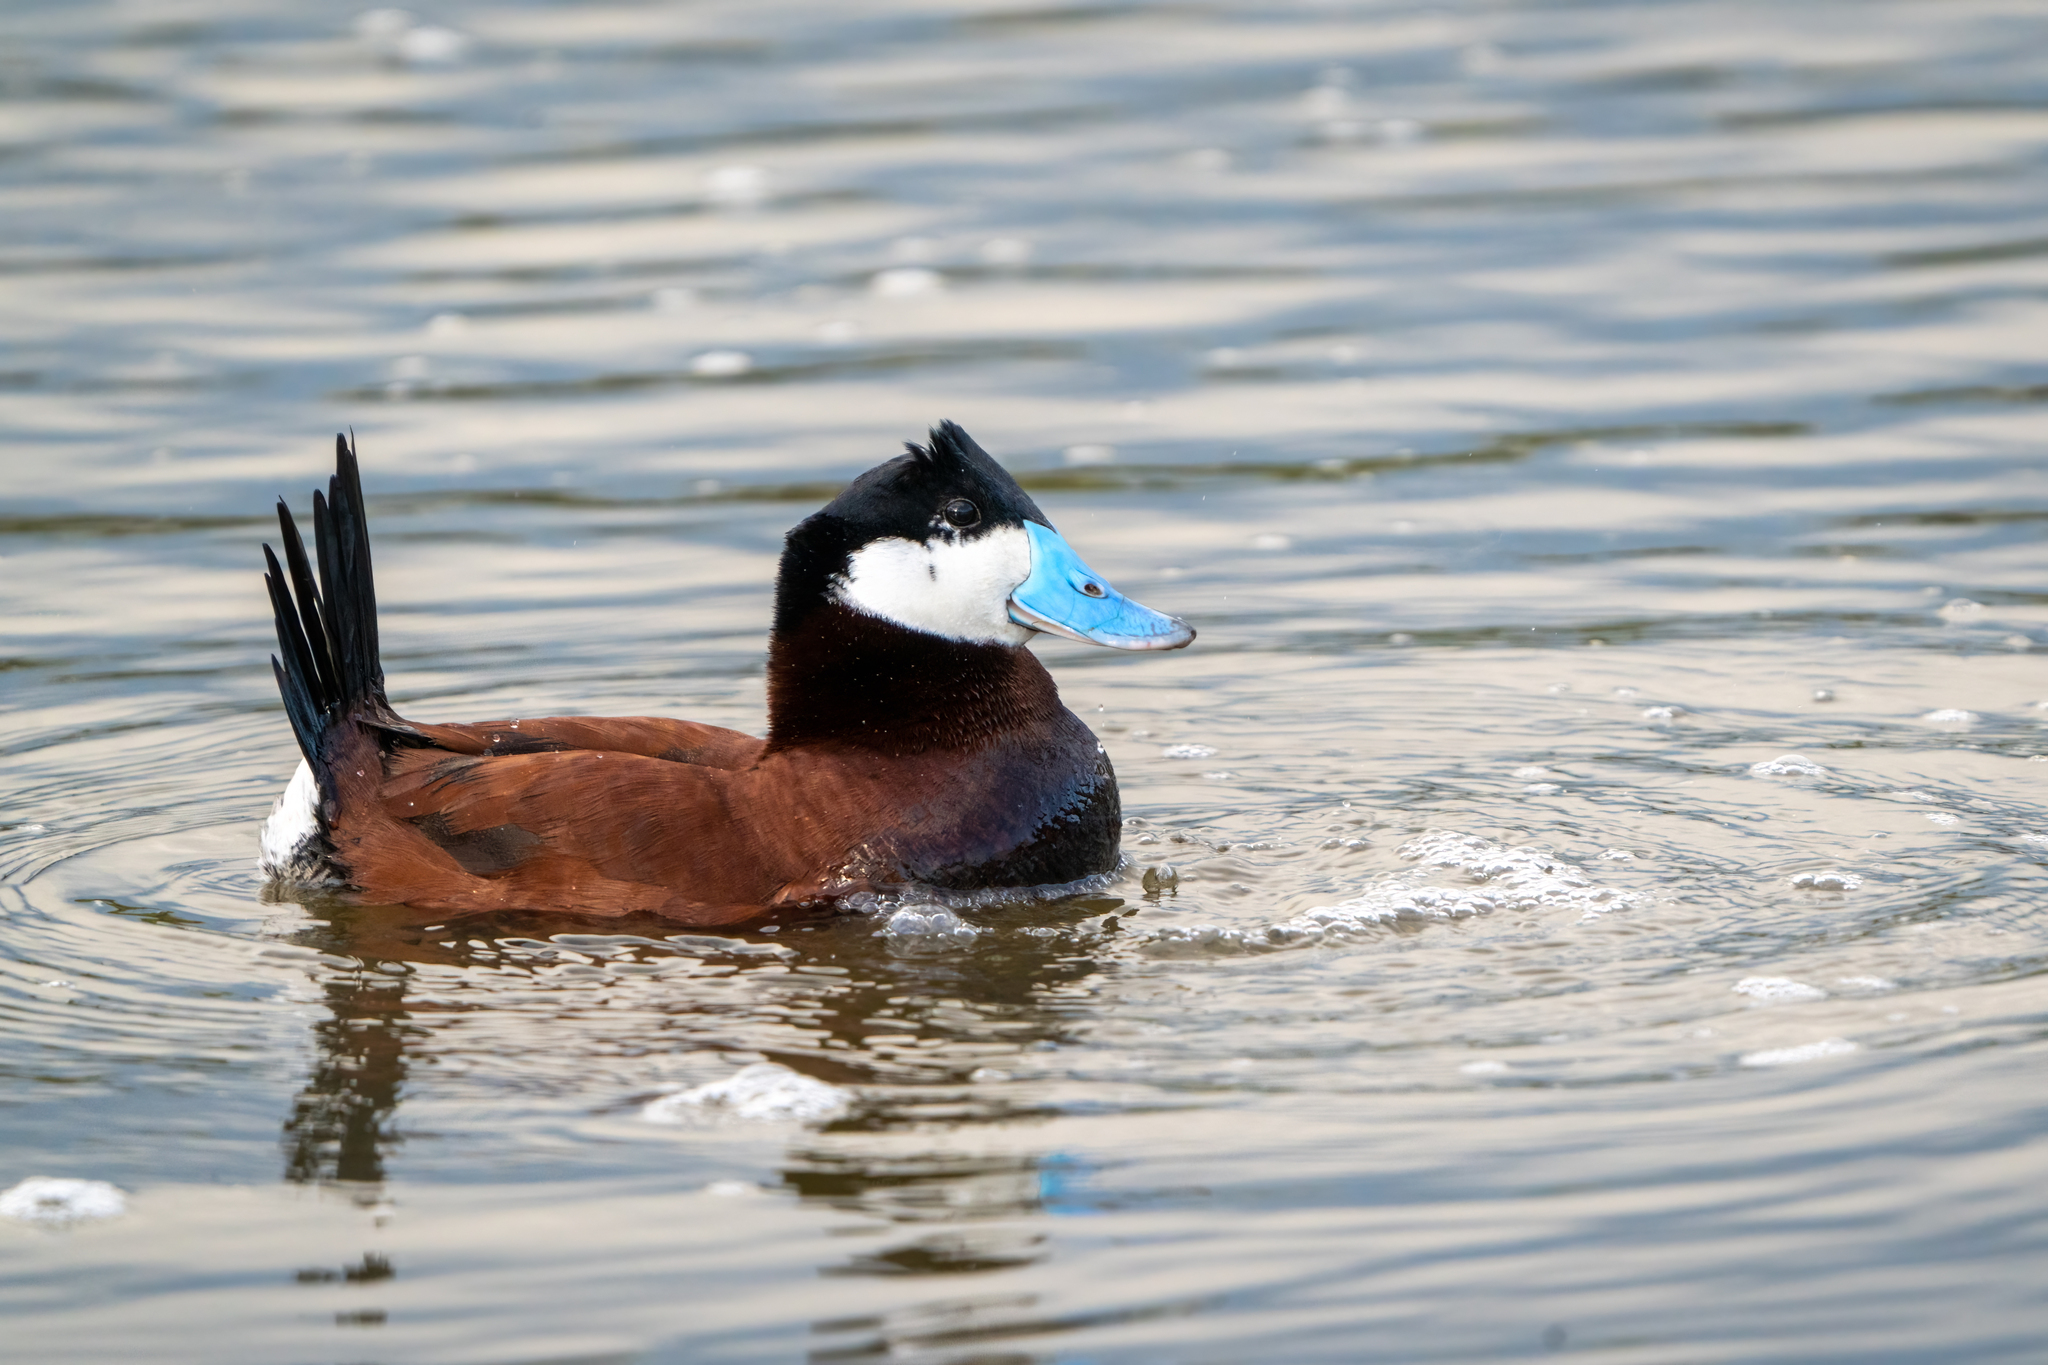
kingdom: Animalia
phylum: Chordata
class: Aves
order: Anseriformes
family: Anatidae
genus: Oxyura
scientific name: Oxyura jamaicensis
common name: Ruddy duck
